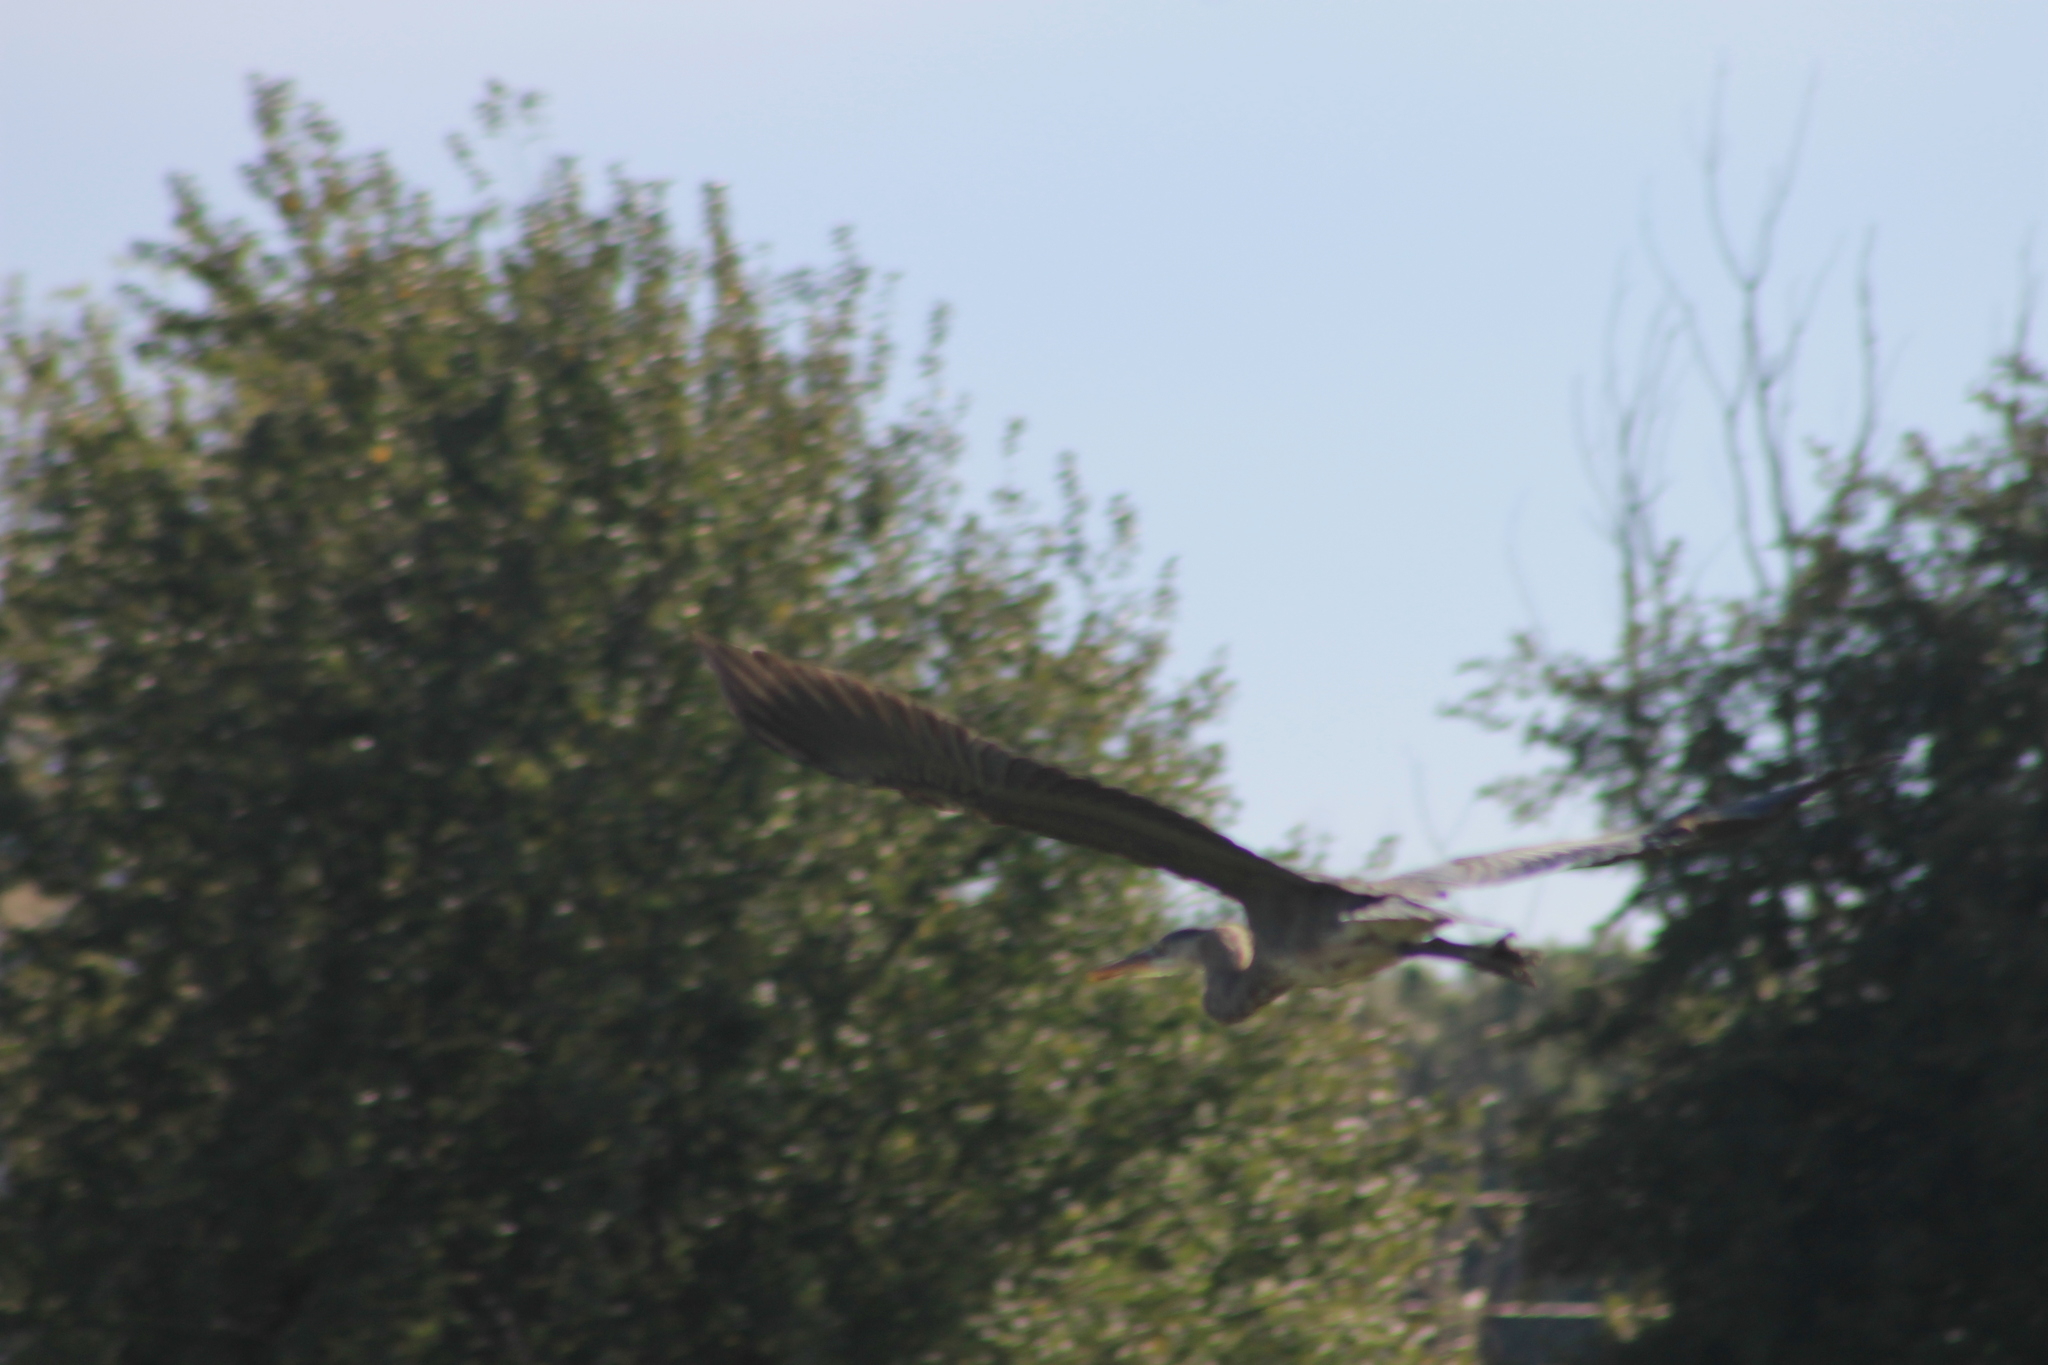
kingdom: Animalia
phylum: Chordata
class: Aves
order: Pelecaniformes
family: Ardeidae
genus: Ardea
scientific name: Ardea herodias
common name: Great blue heron
